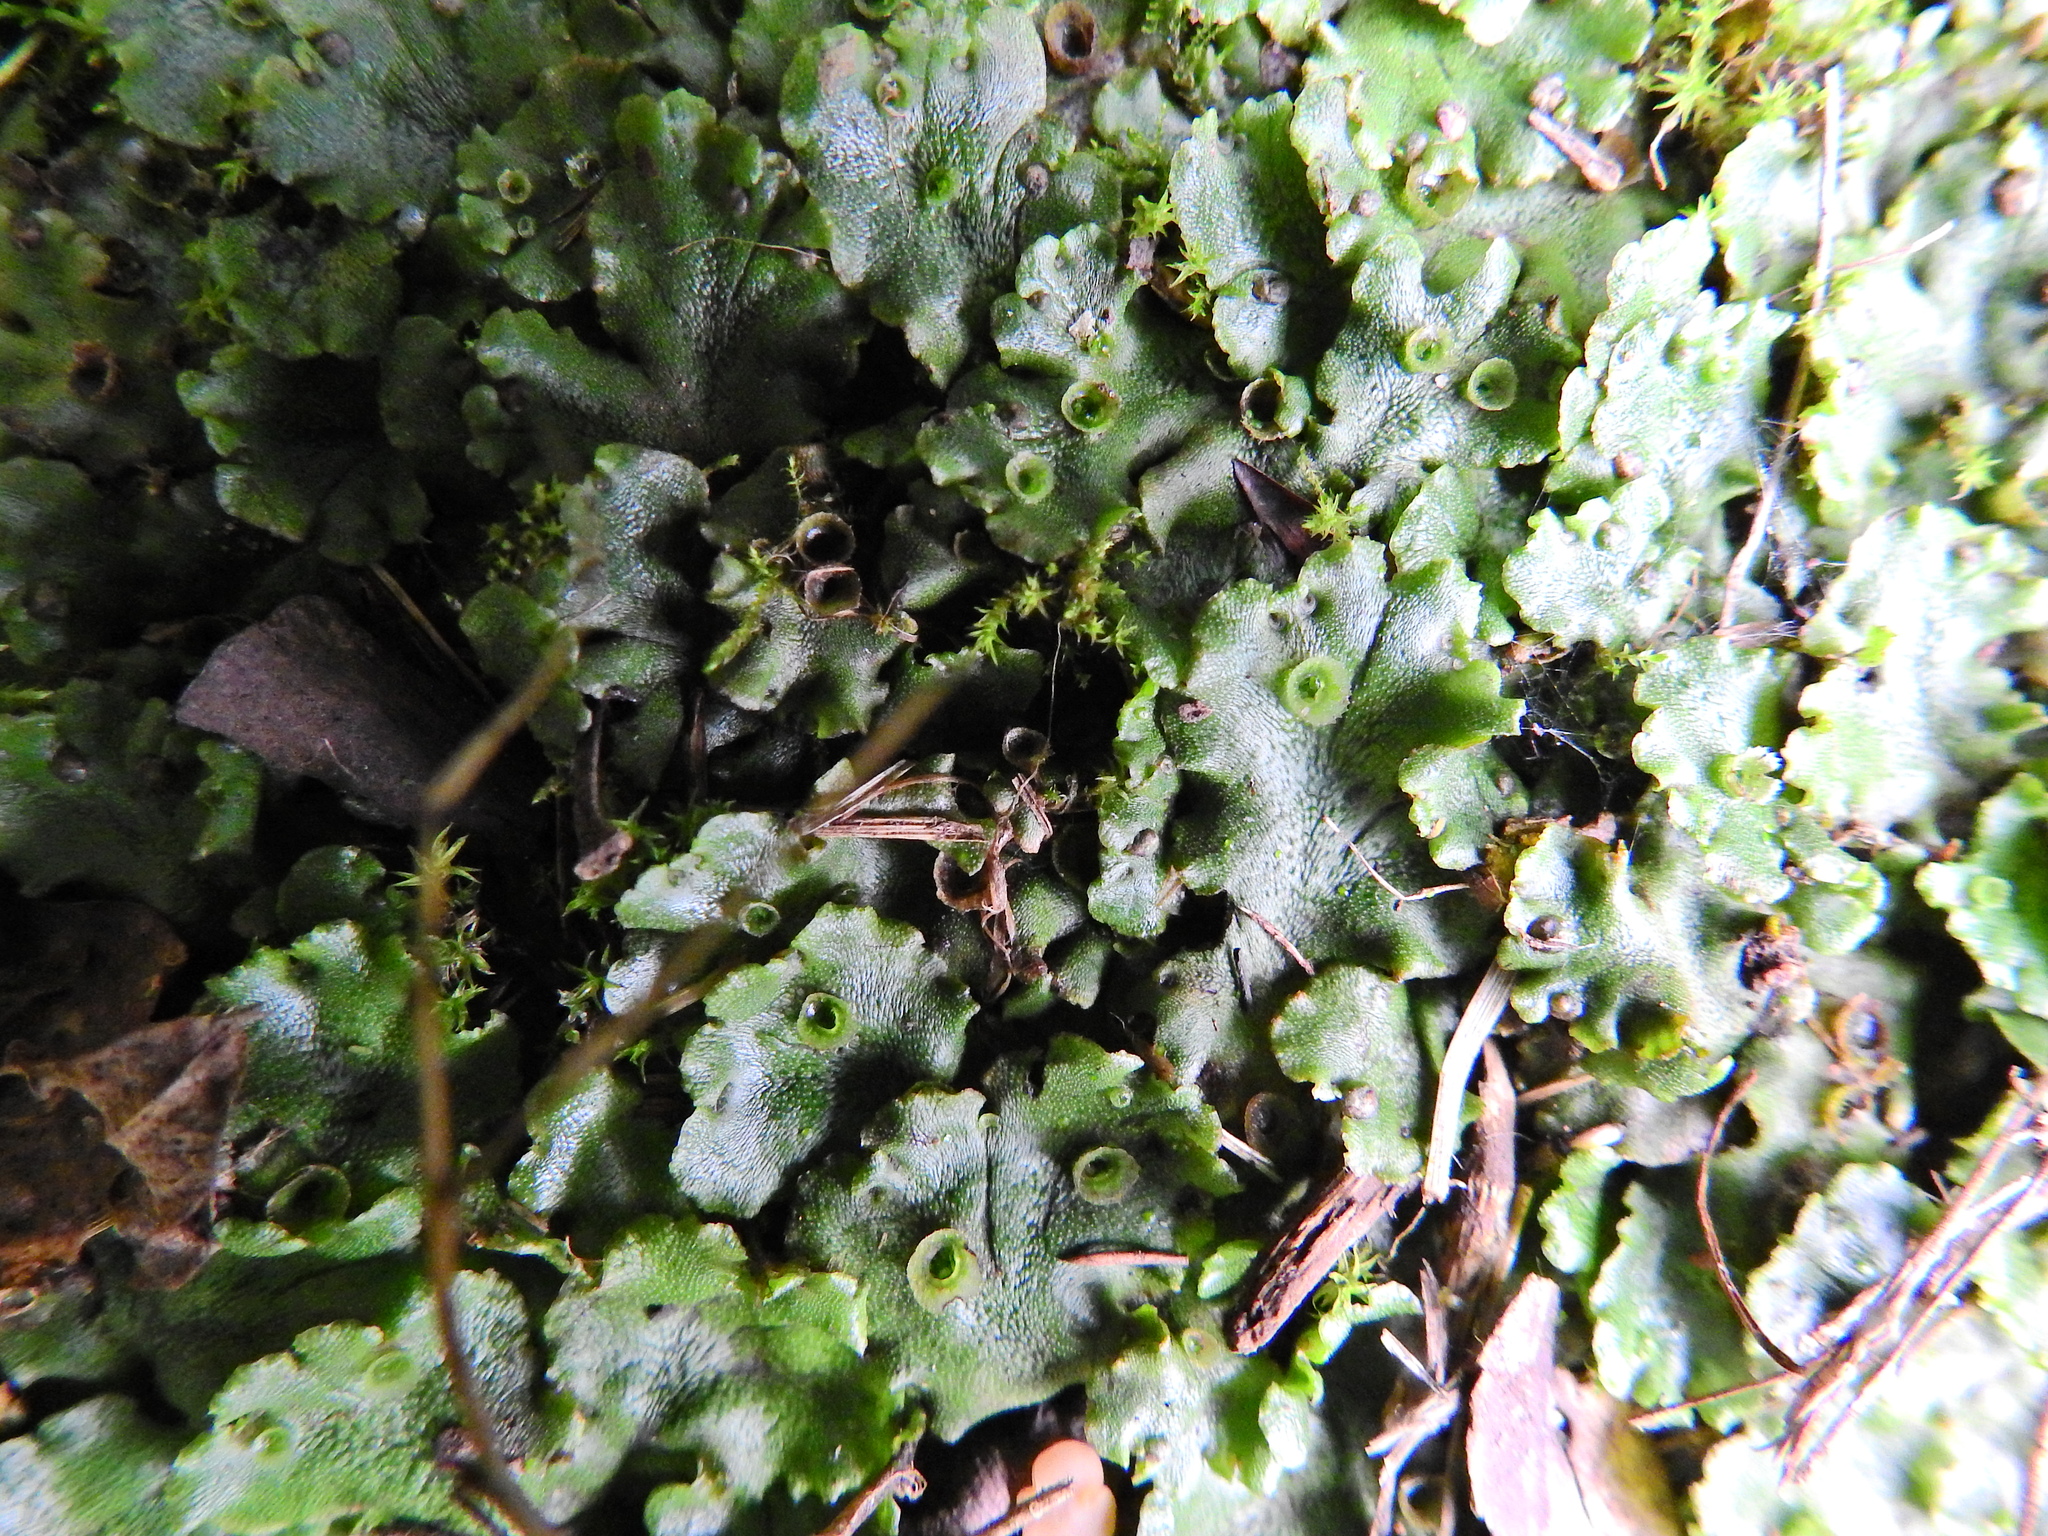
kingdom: Plantae
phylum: Marchantiophyta
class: Marchantiopsida
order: Marchantiales
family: Marchantiaceae
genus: Marchantia
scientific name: Marchantia polymorpha
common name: Common liverwort
